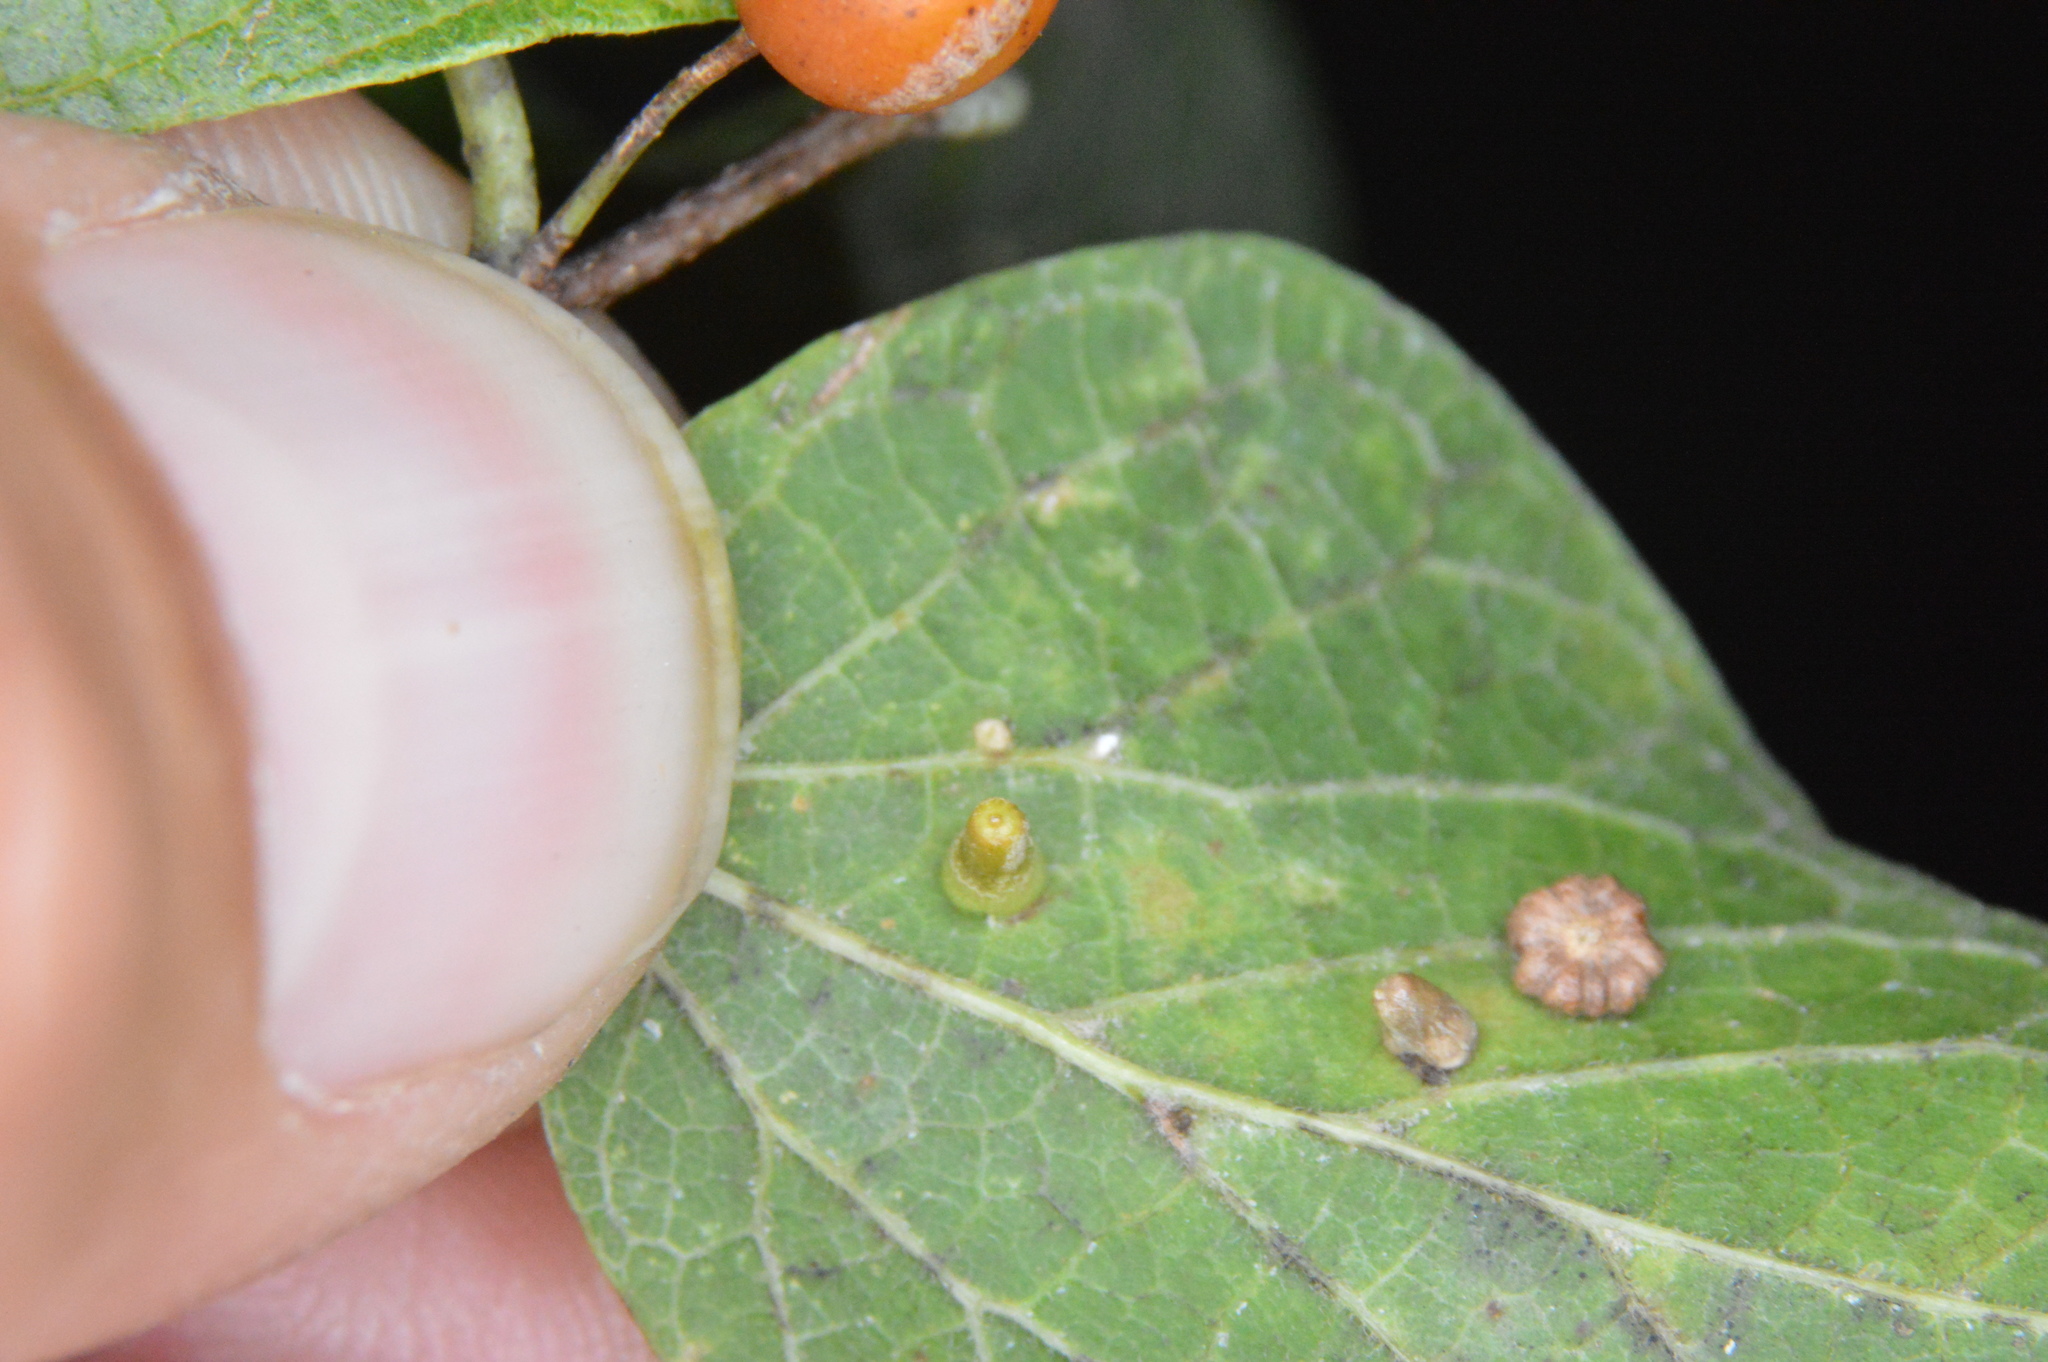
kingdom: Animalia
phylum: Arthropoda
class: Insecta
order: Diptera
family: Cecidomyiidae
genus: Celticecis
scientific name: Celticecis aciculata
